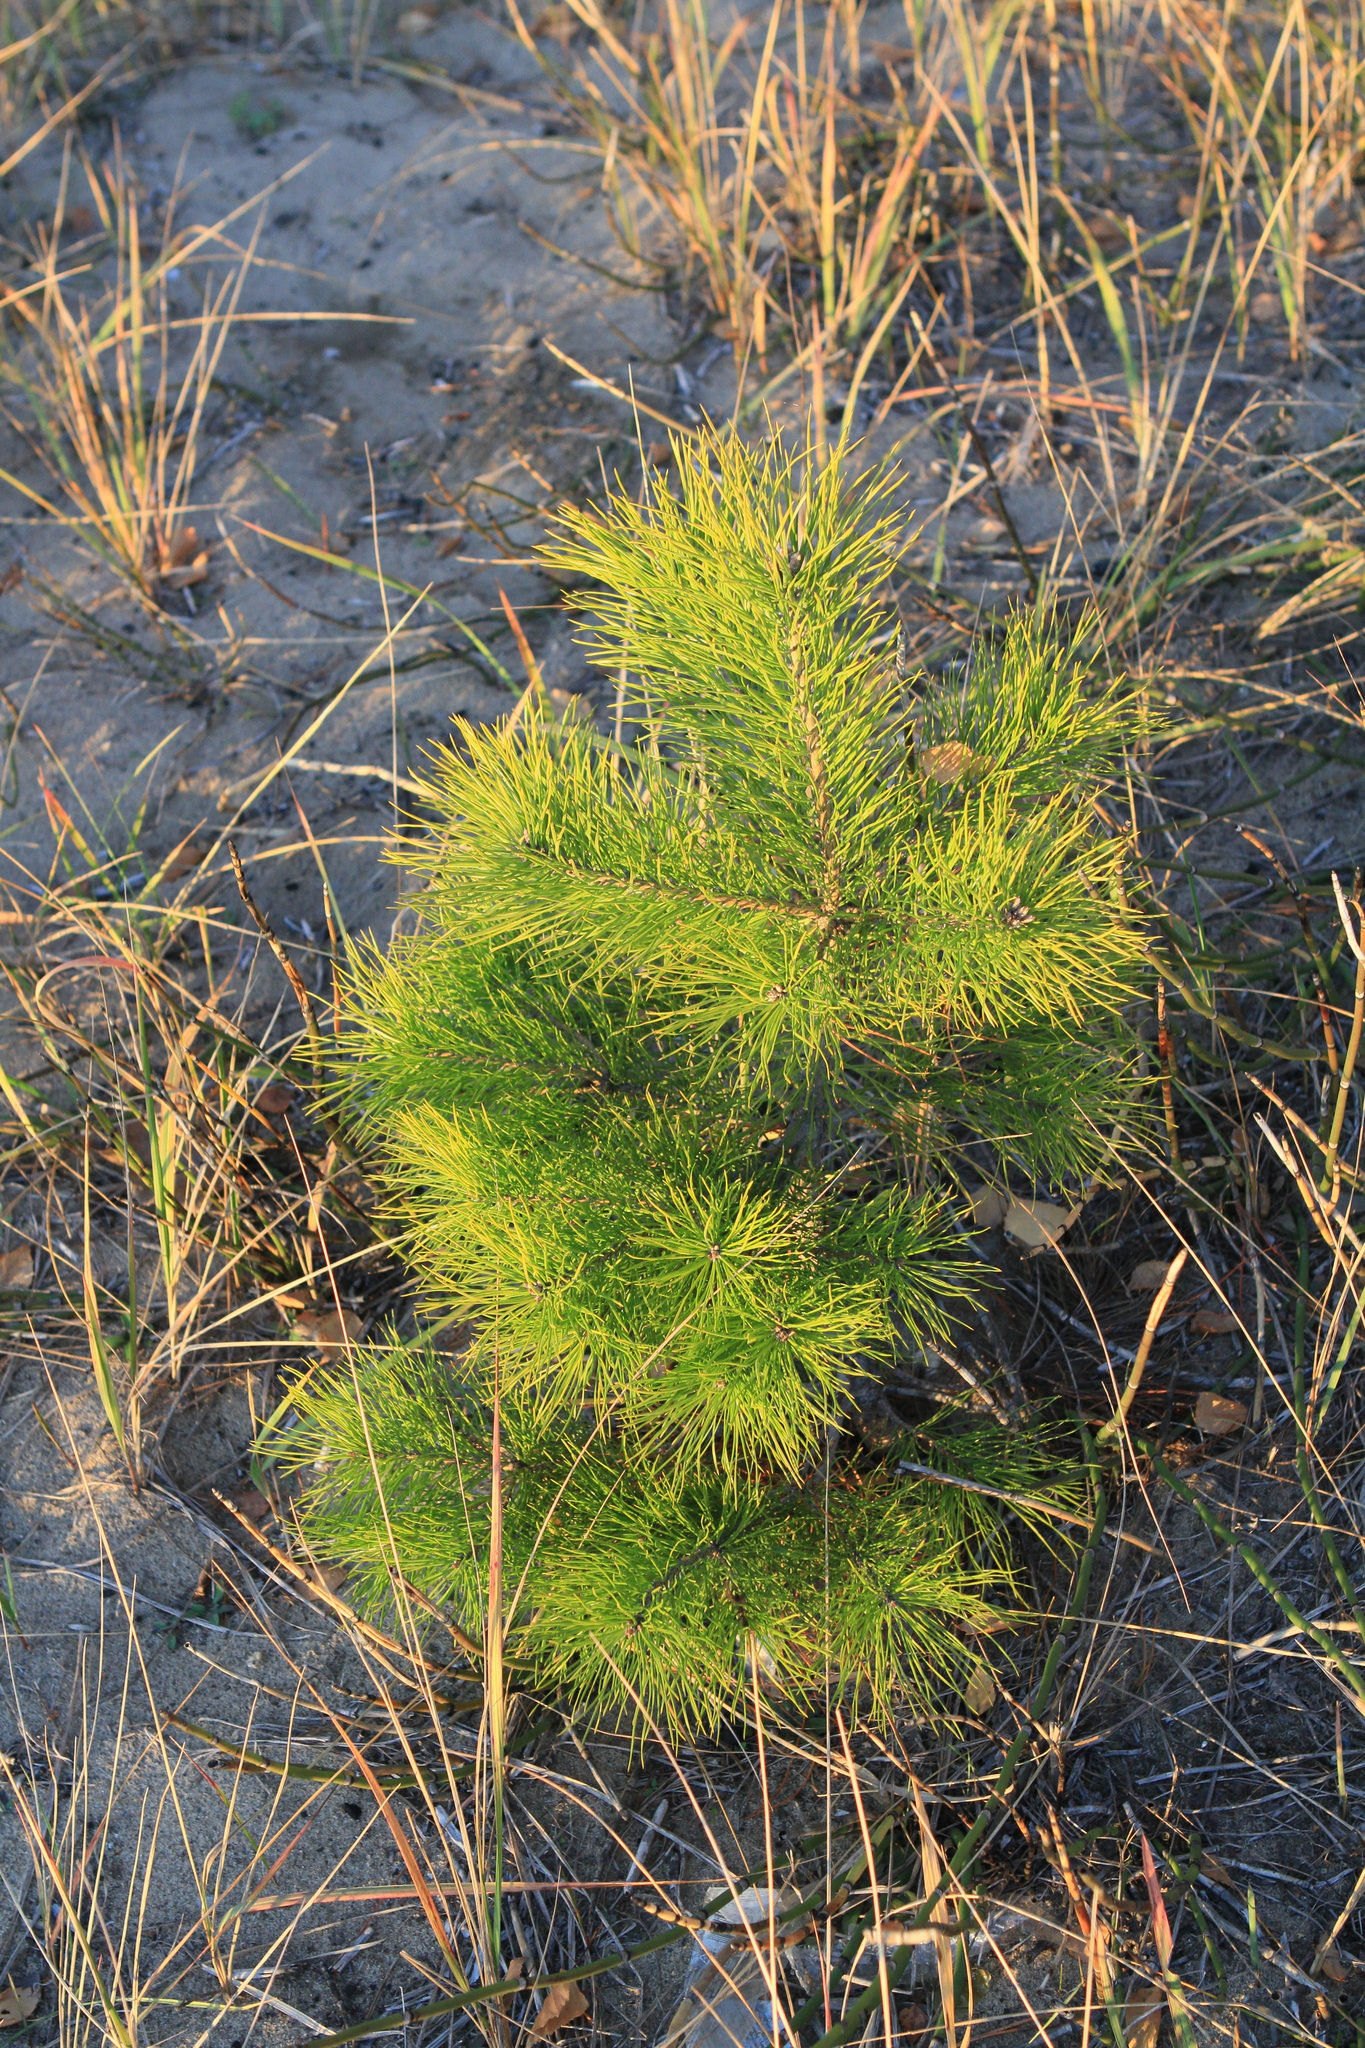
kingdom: Plantae
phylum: Tracheophyta
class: Pinopsida
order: Pinales
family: Pinaceae
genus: Pinus
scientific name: Pinus sylvestris
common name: Scots pine
